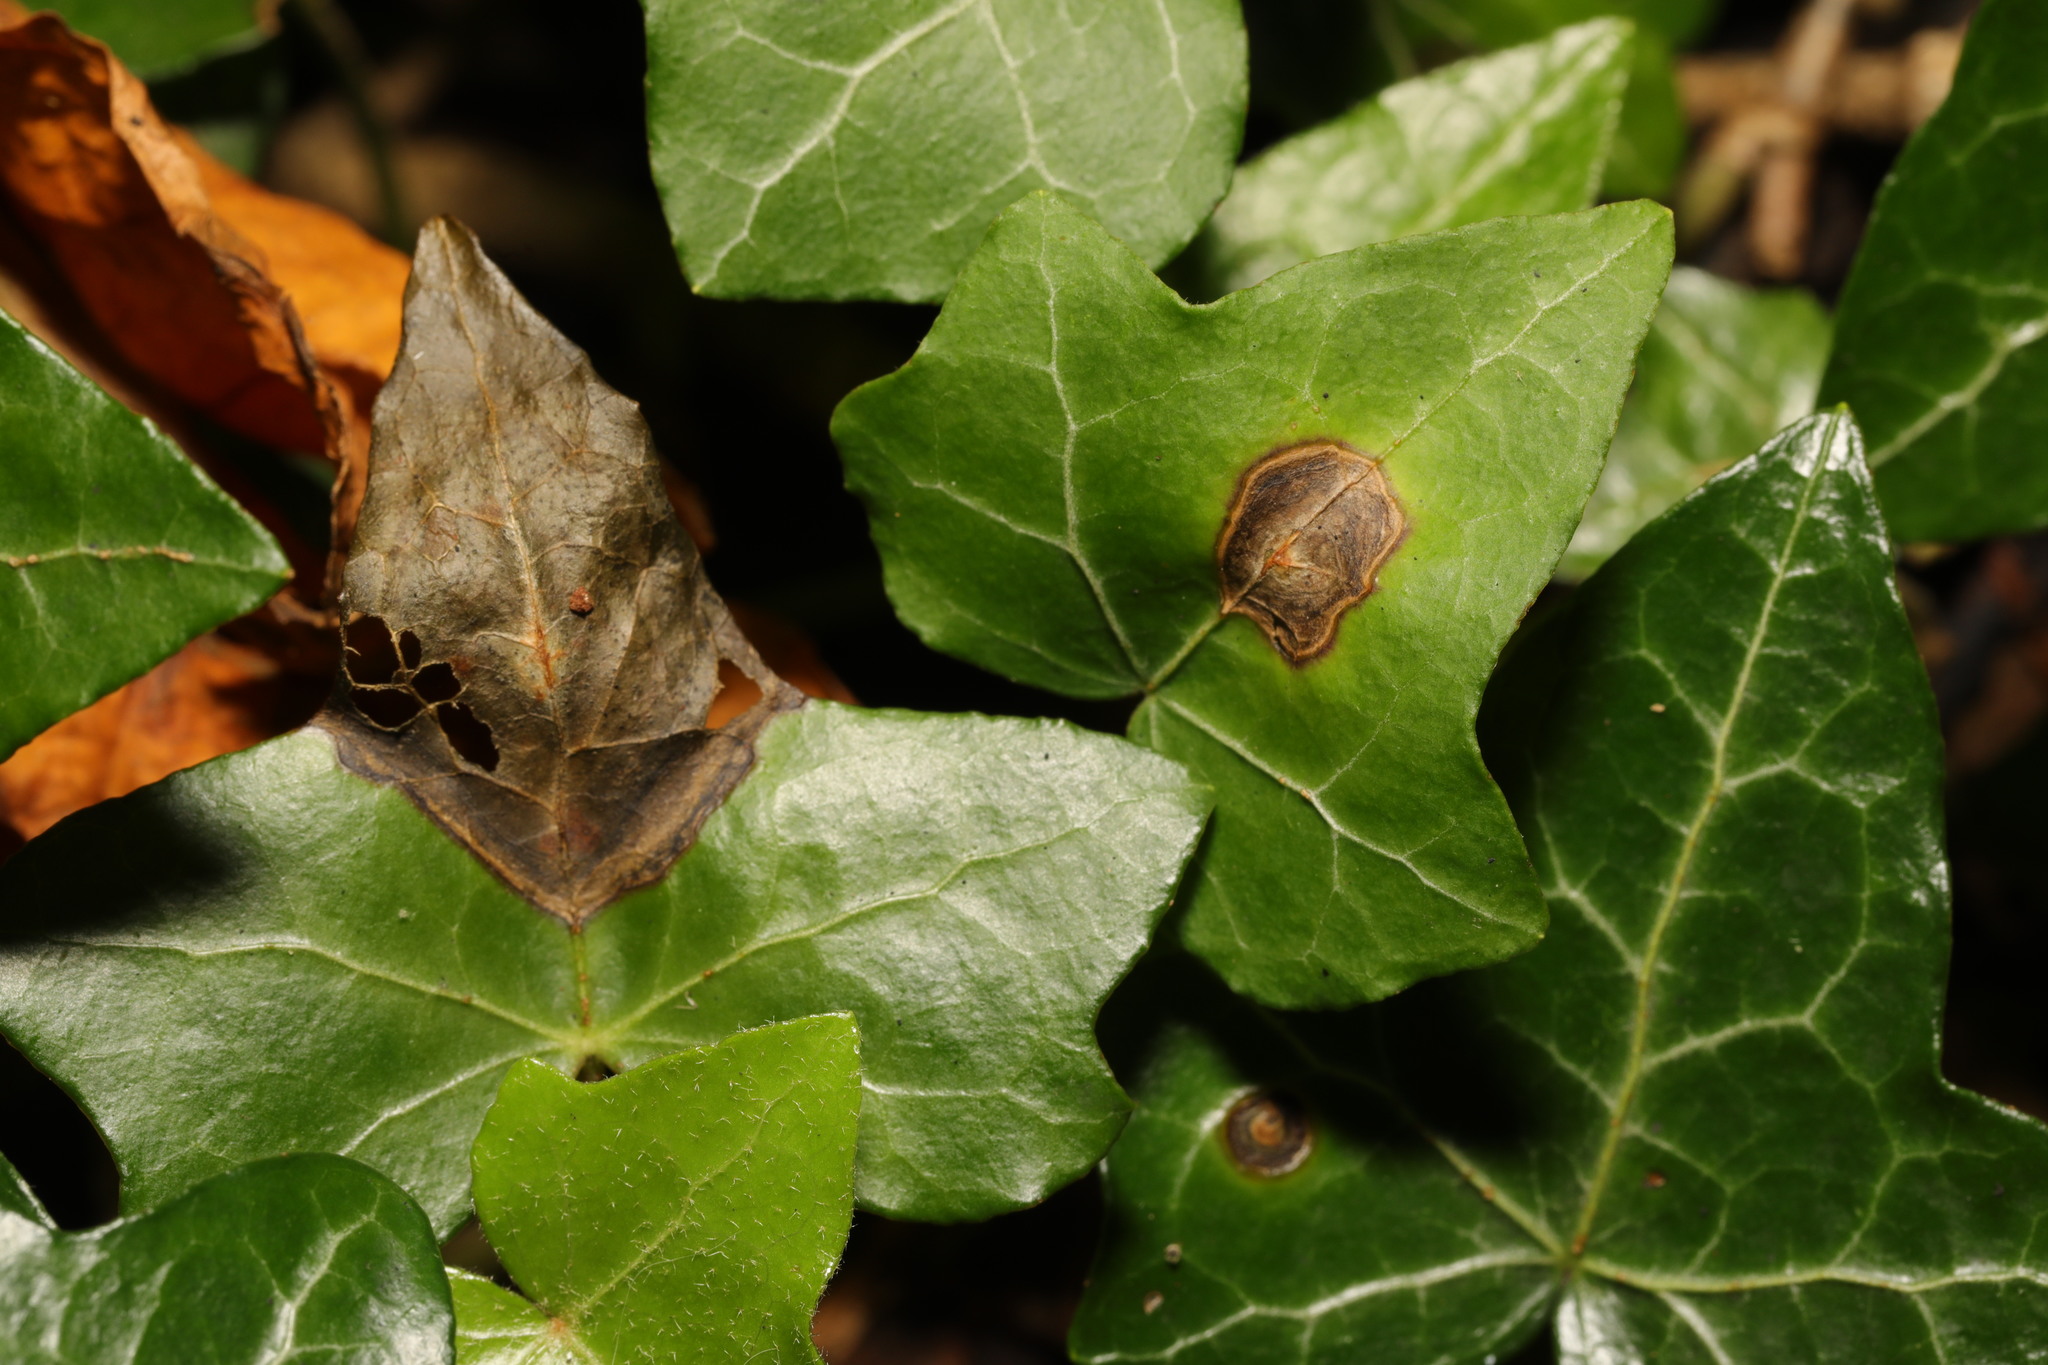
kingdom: Fungi
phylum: Ascomycota
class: Dothideomycetes
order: Pleosporales
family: Didymellaceae
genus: Boeremia
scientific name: Boeremia hedericola
